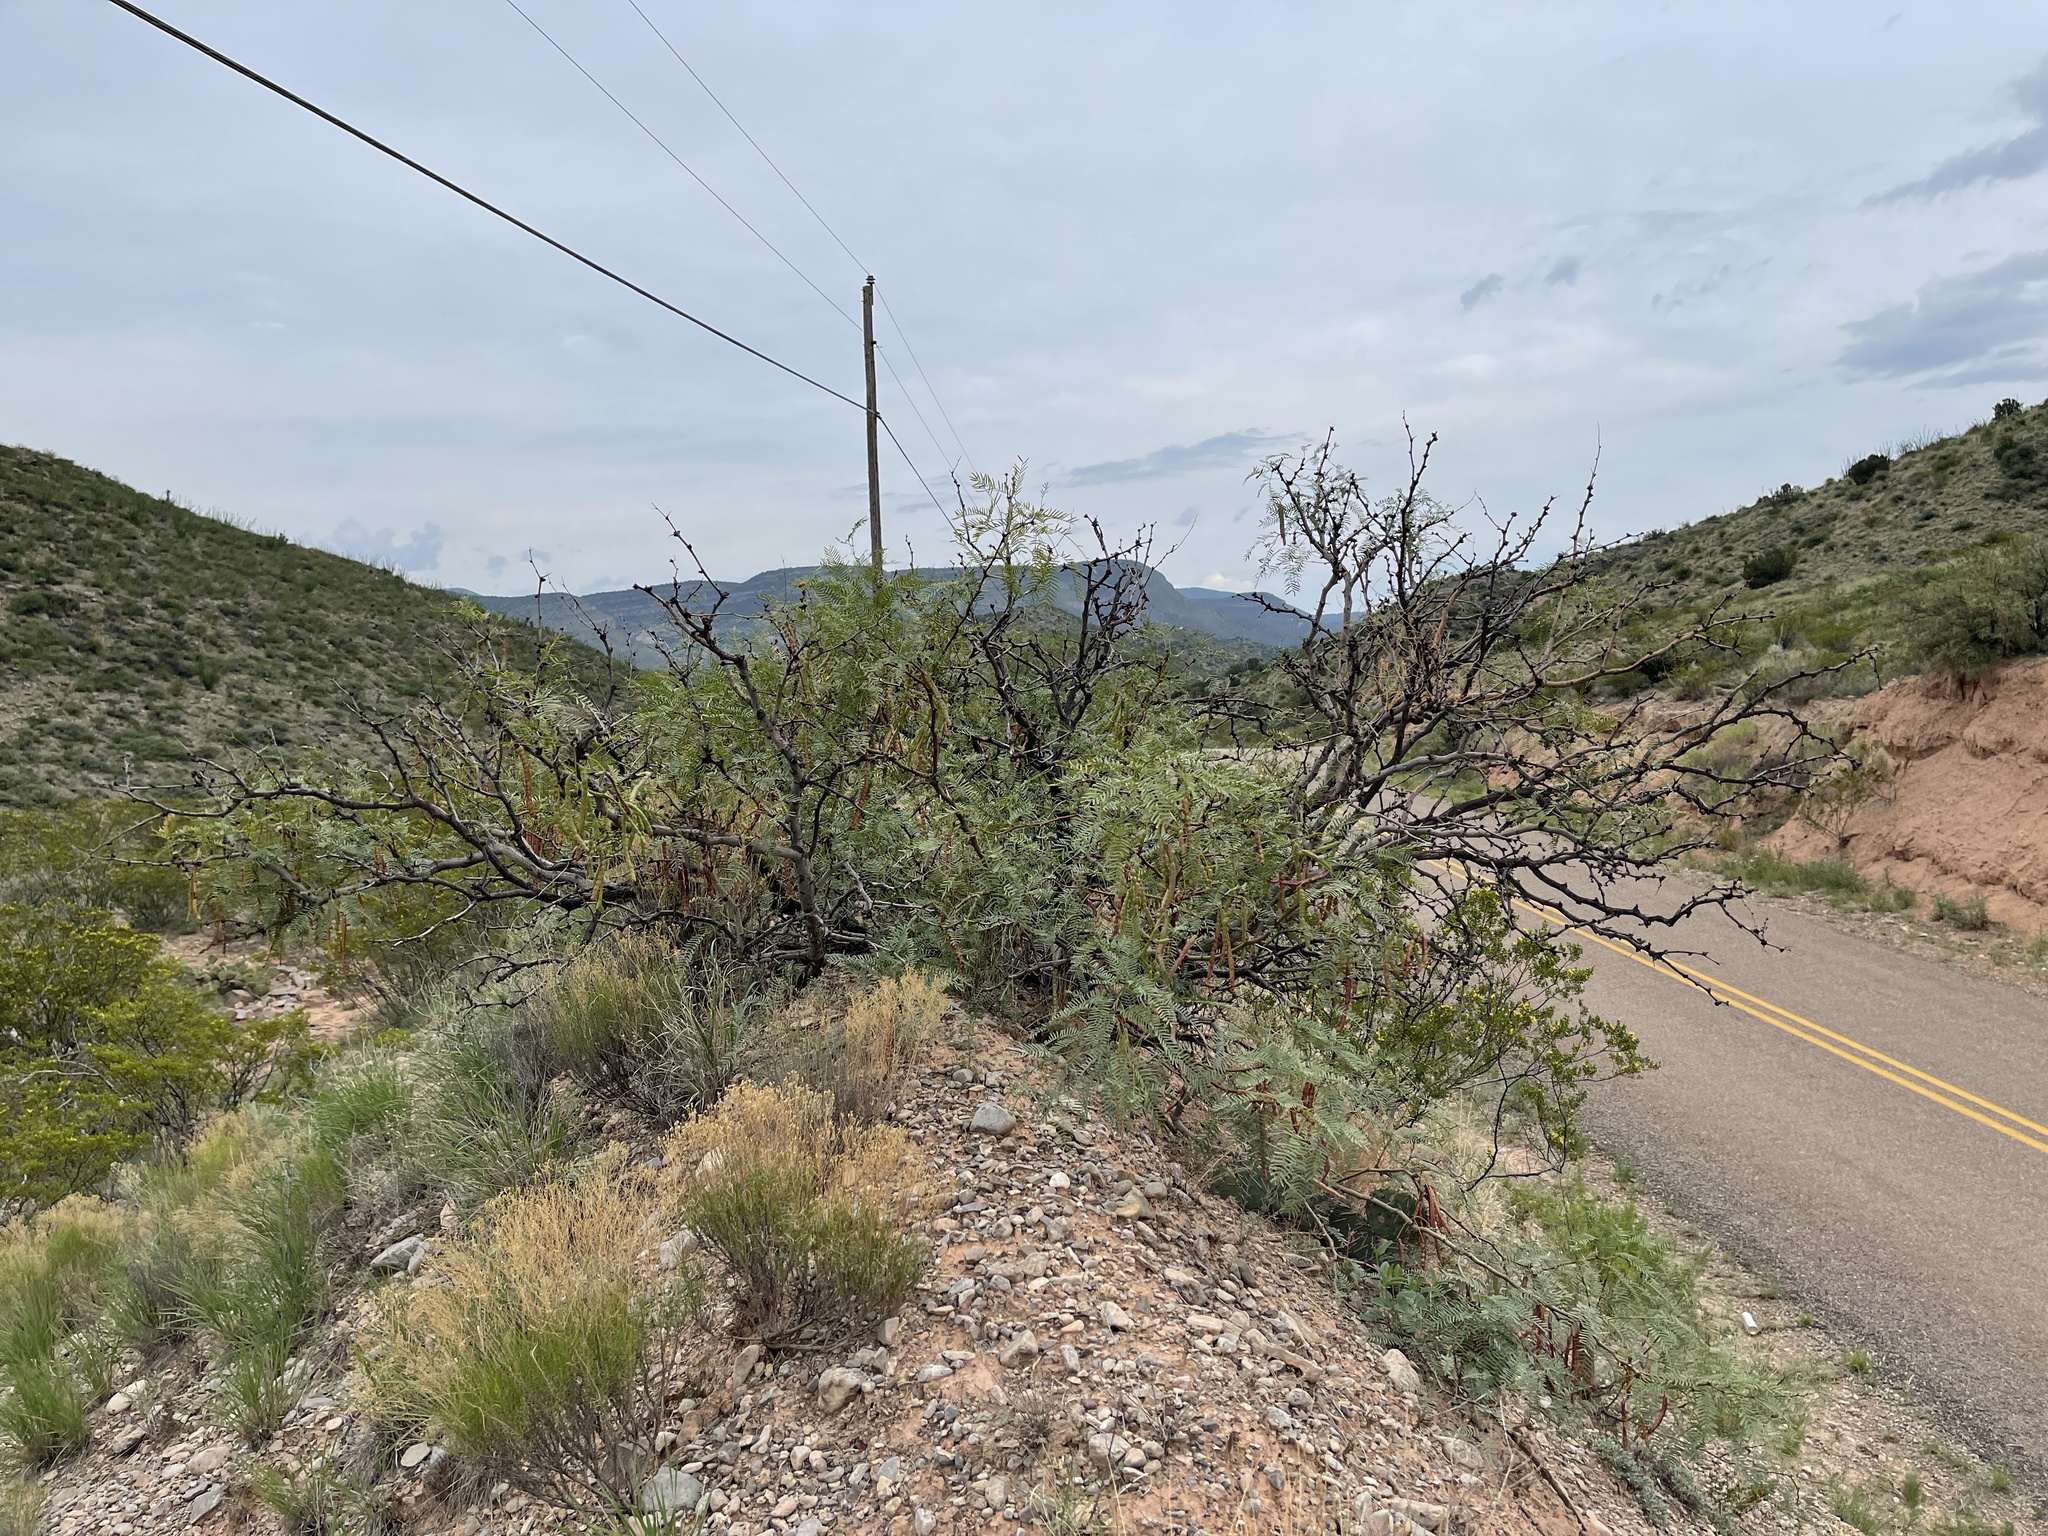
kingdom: Plantae
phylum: Tracheophyta
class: Magnoliopsida
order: Fabales
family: Fabaceae
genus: Prosopis
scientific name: Prosopis glandulosa
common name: Honey mesquite
